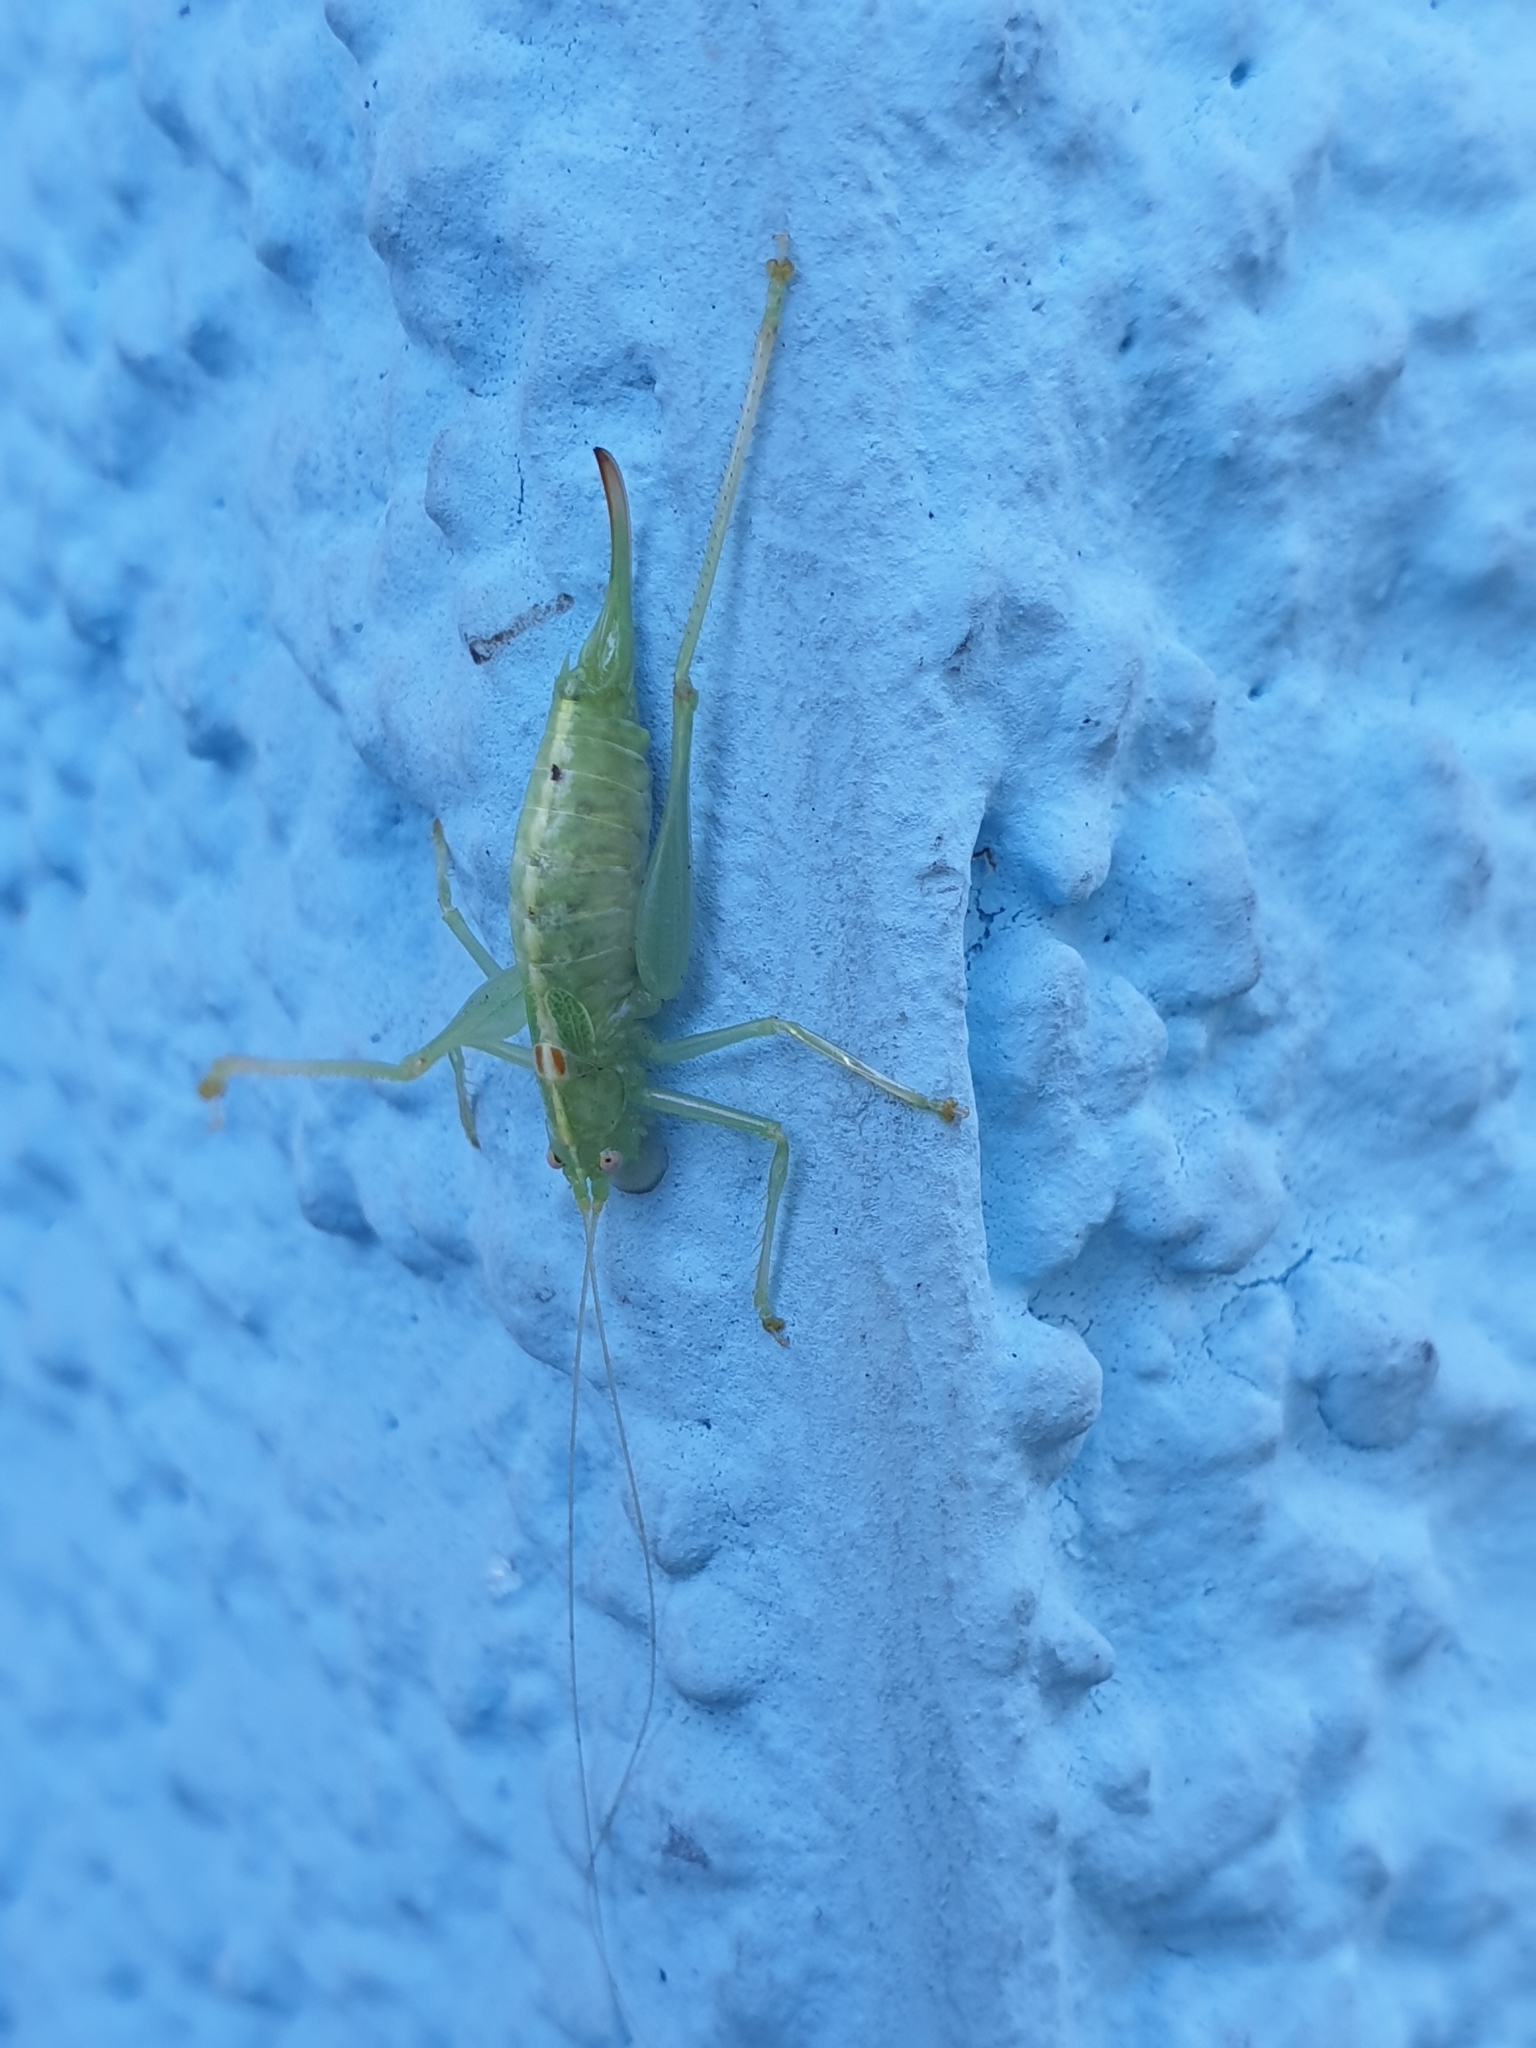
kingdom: Animalia
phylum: Arthropoda
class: Insecta
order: Orthoptera
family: Tettigoniidae
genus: Meconema
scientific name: Meconema meridionale
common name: Southern oak bush-cricket
